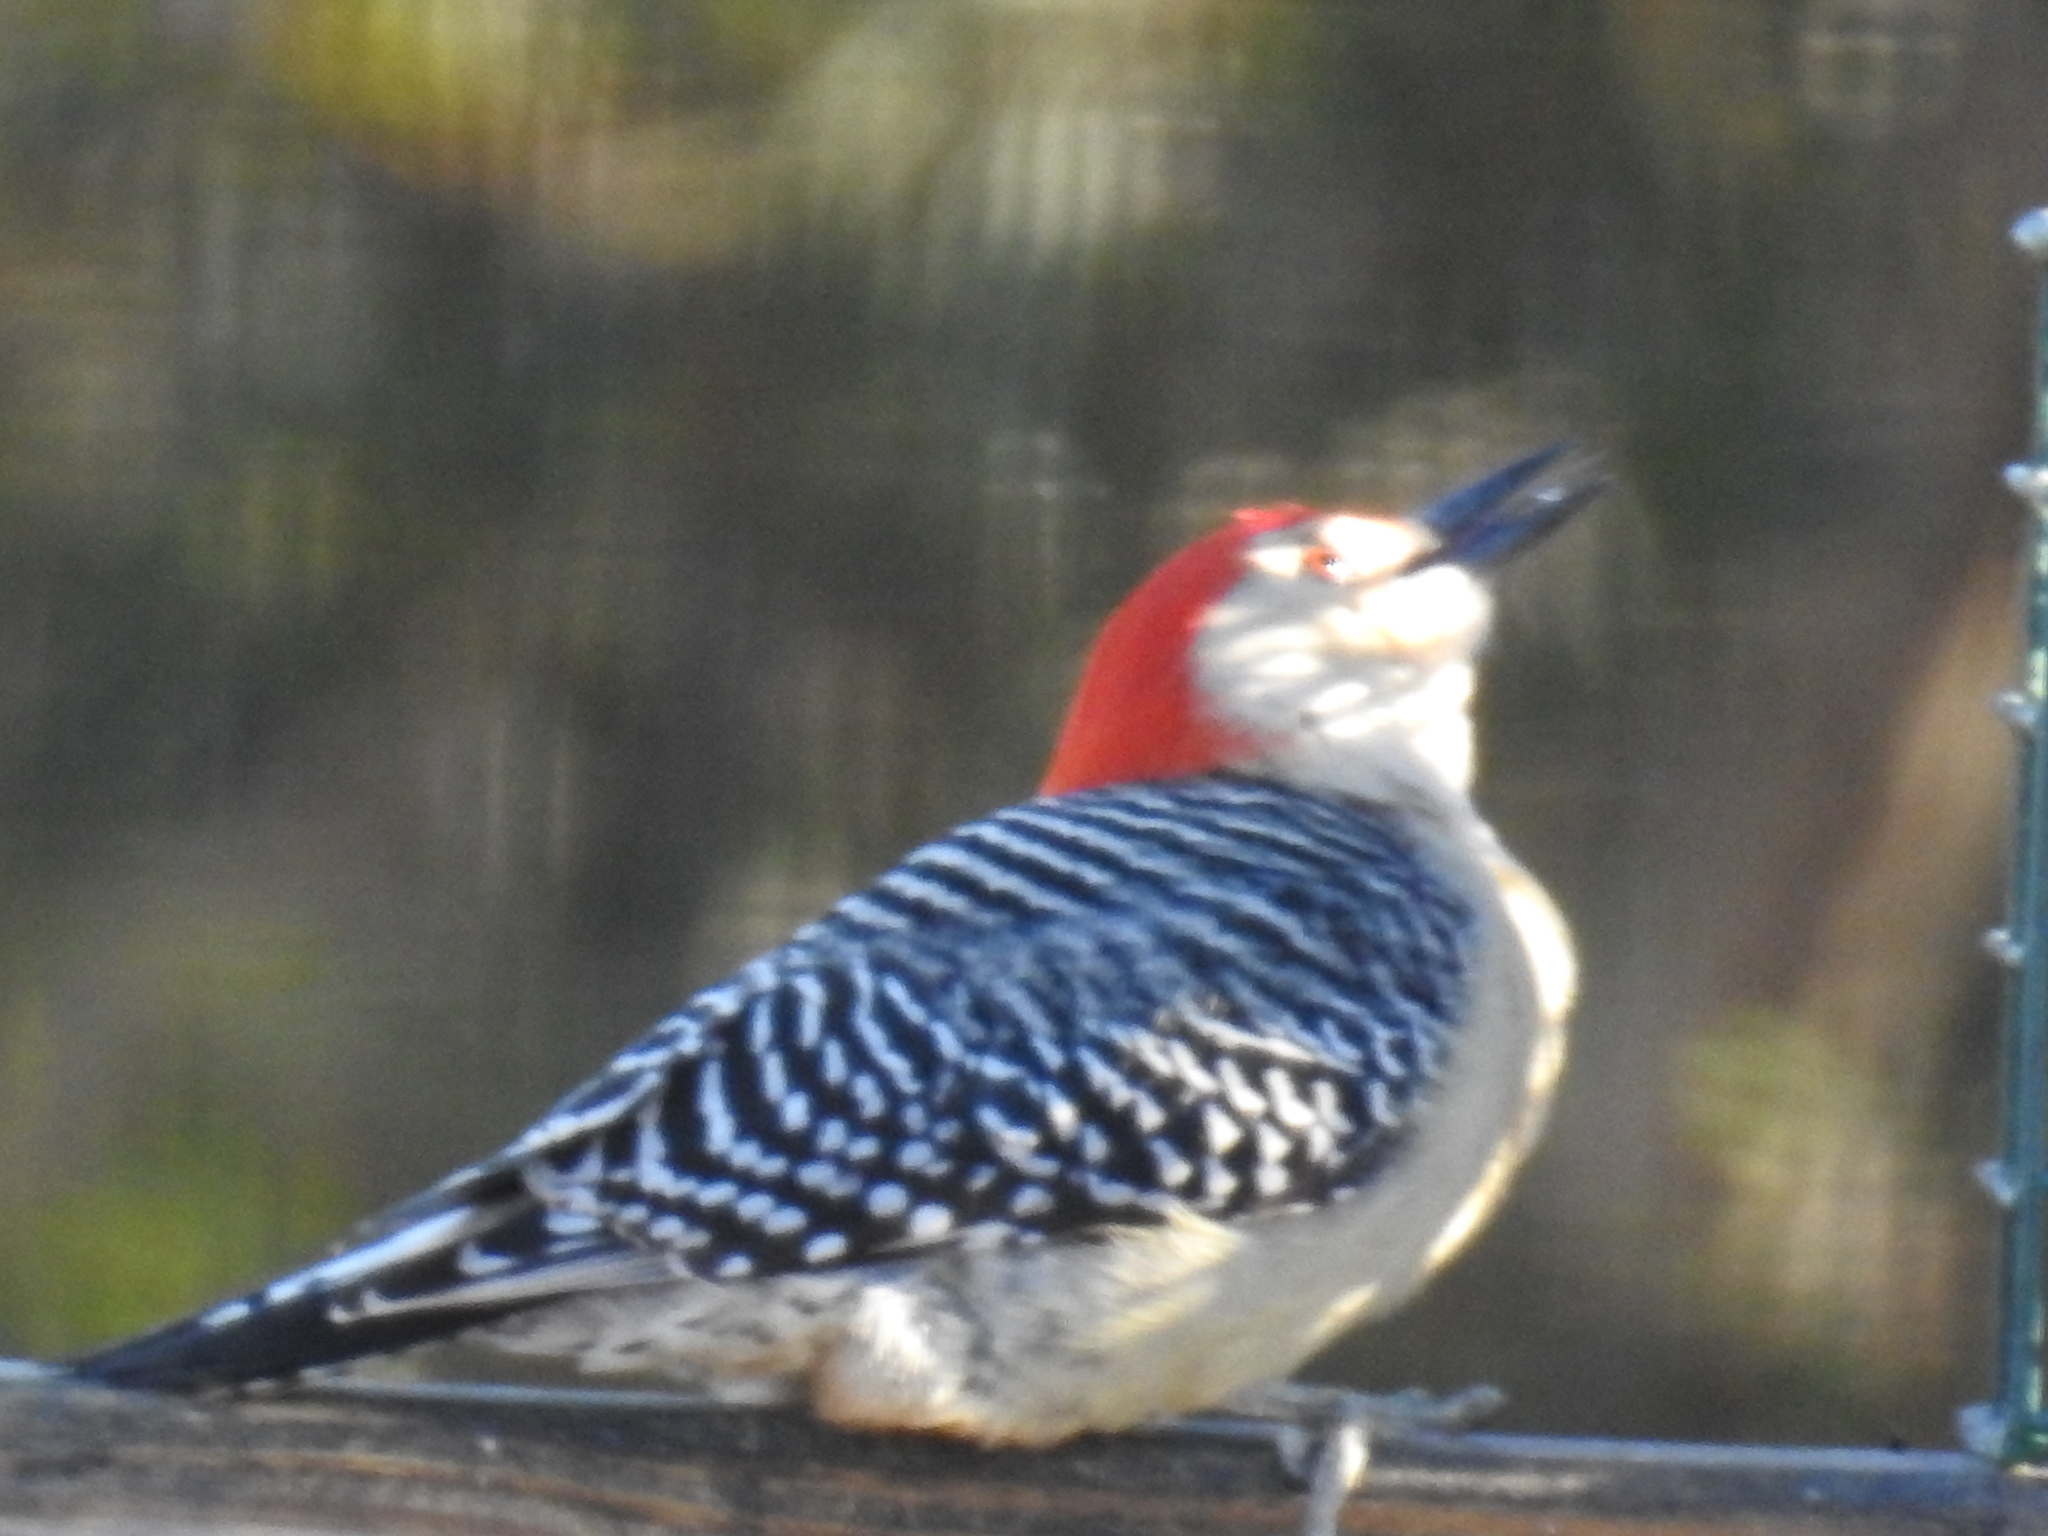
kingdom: Animalia
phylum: Chordata
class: Aves
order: Piciformes
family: Picidae
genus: Melanerpes
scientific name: Melanerpes carolinus
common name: Red-bellied woodpecker
